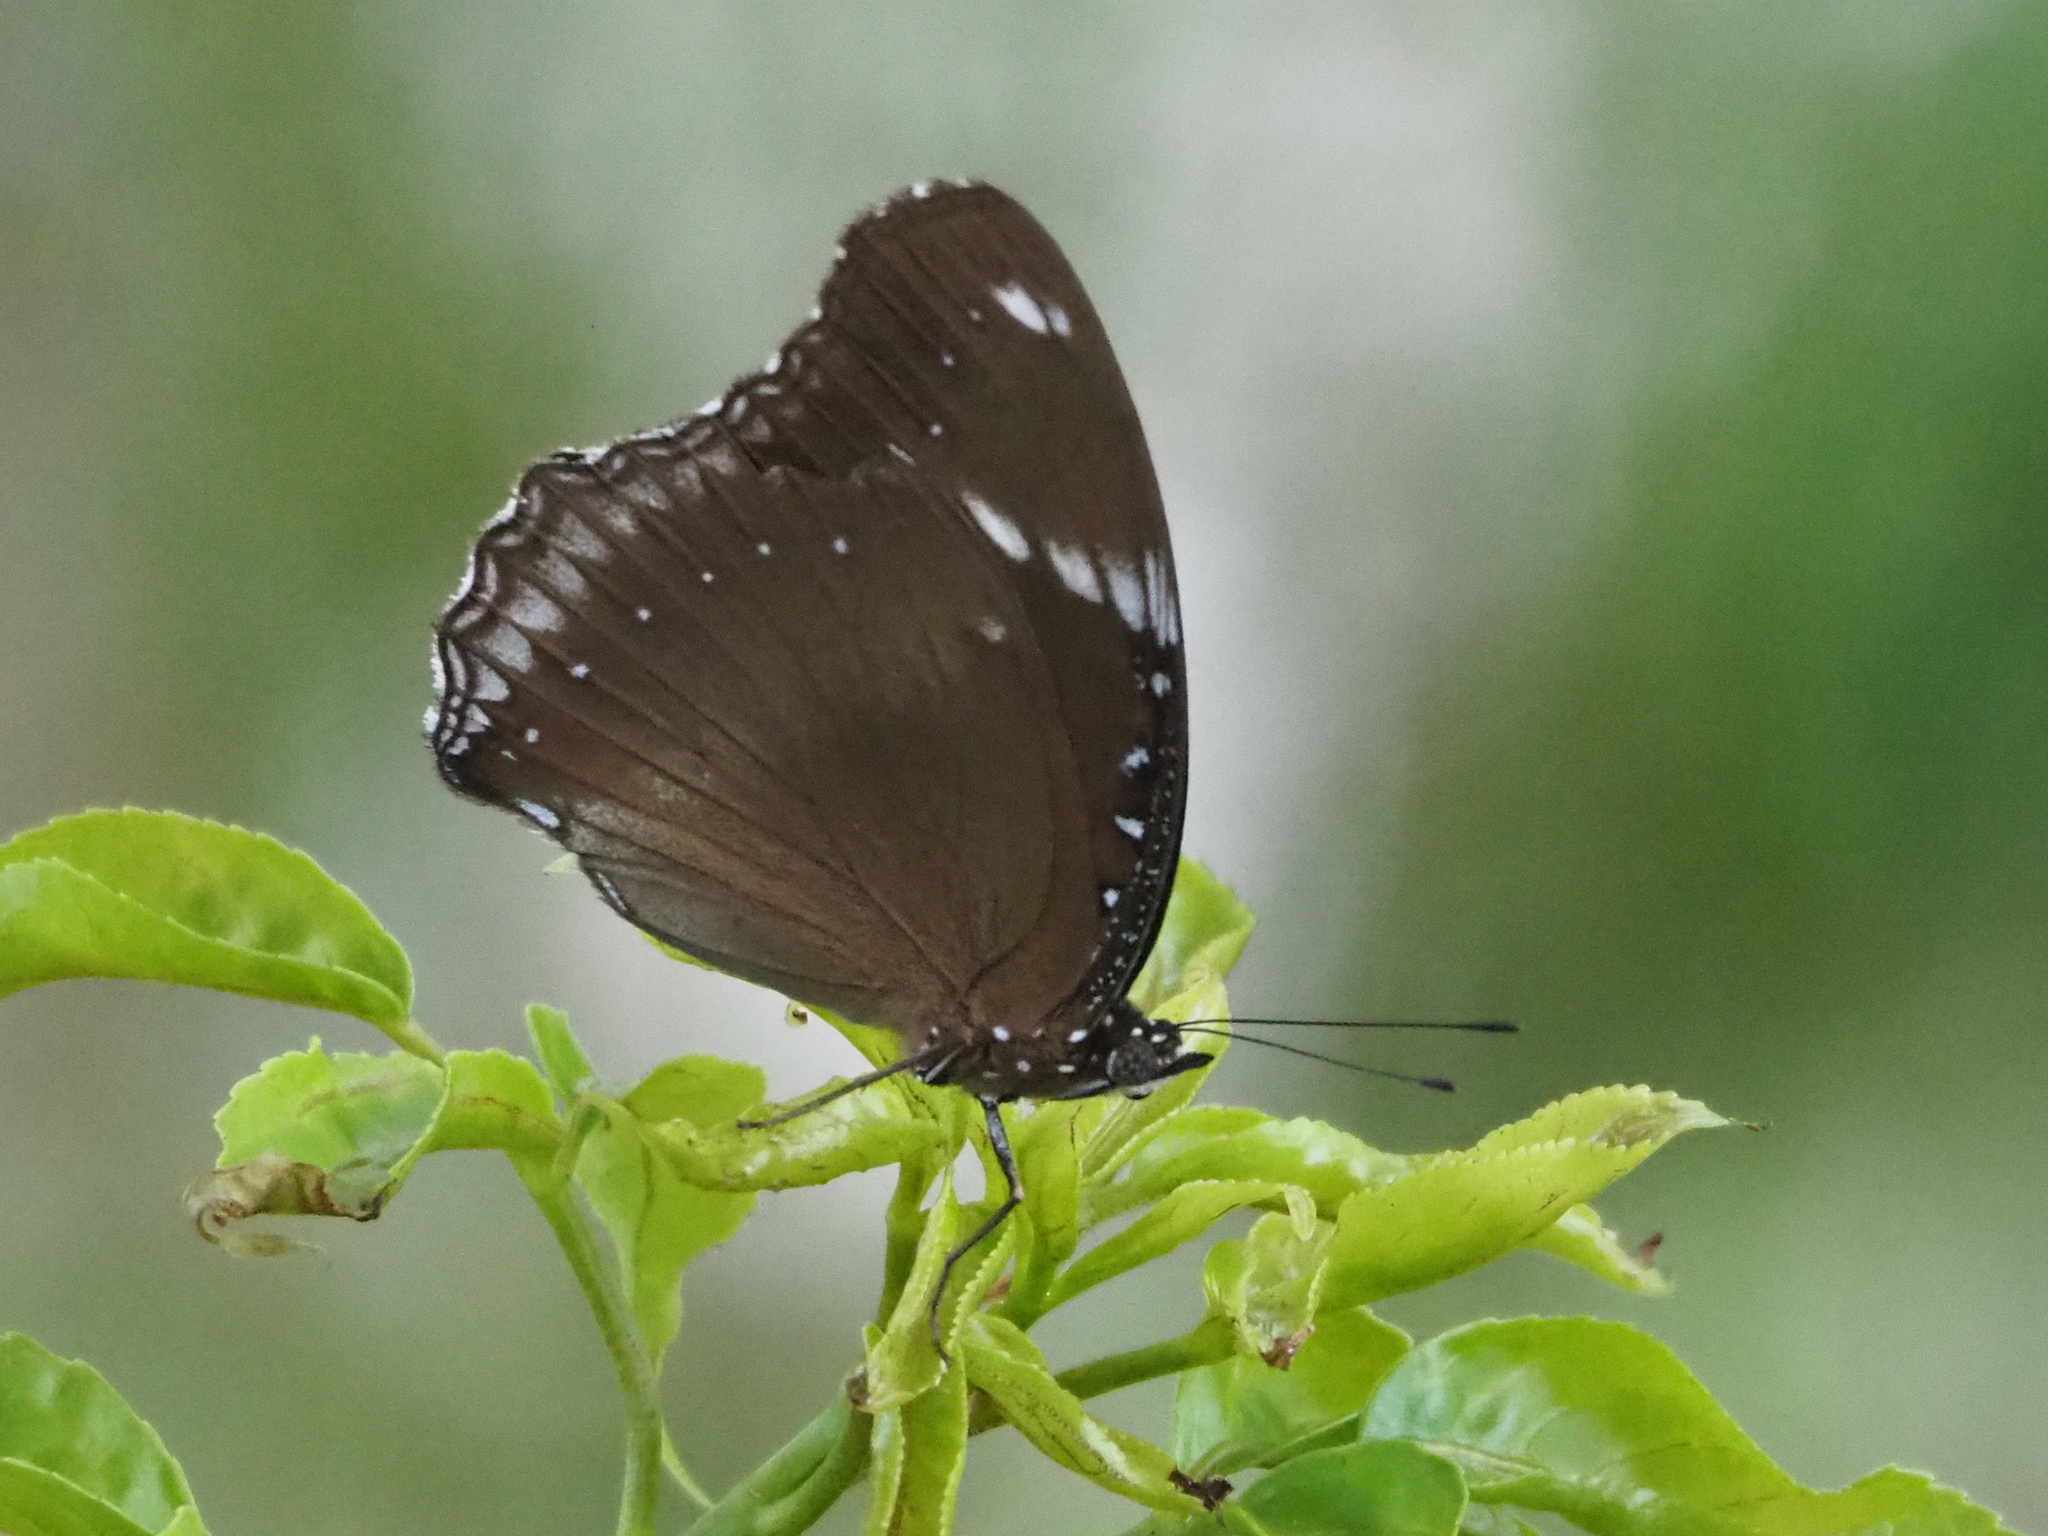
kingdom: Animalia
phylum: Arthropoda
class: Insecta
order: Lepidoptera
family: Nymphalidae
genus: Hypolimnas
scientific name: Hypolimnas bolina
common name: Great eggfly
